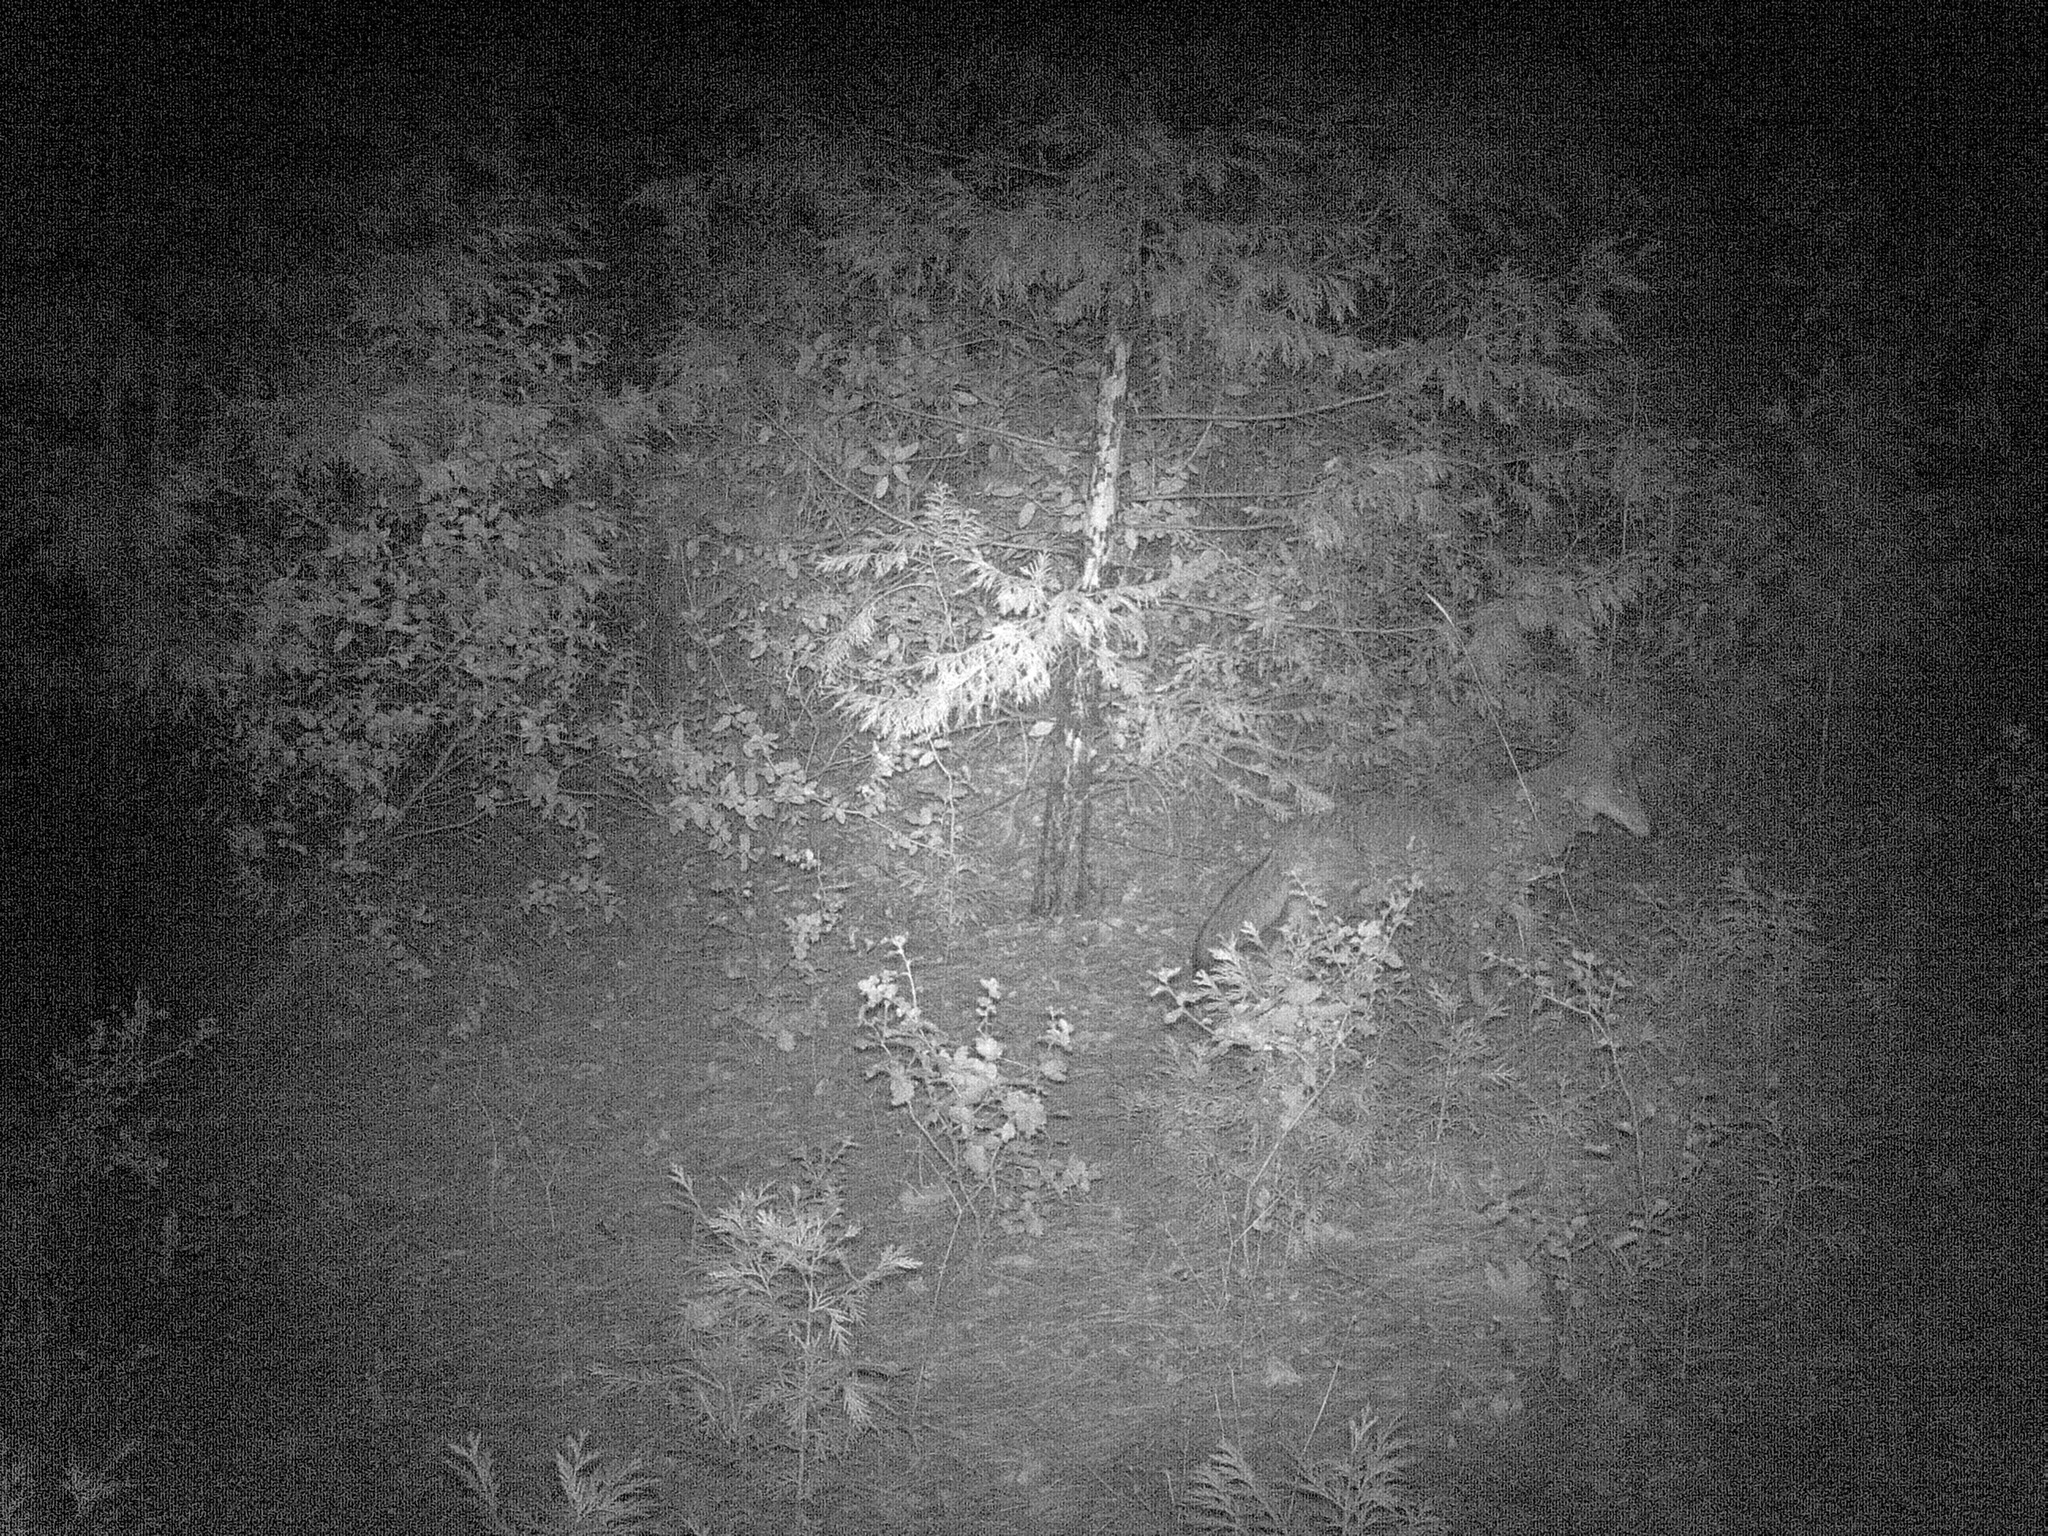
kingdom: Animalia
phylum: Chordata
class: Mammalia
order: Carnivora
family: Canidae
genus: Canis
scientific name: Canis latrans
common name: Coyote
